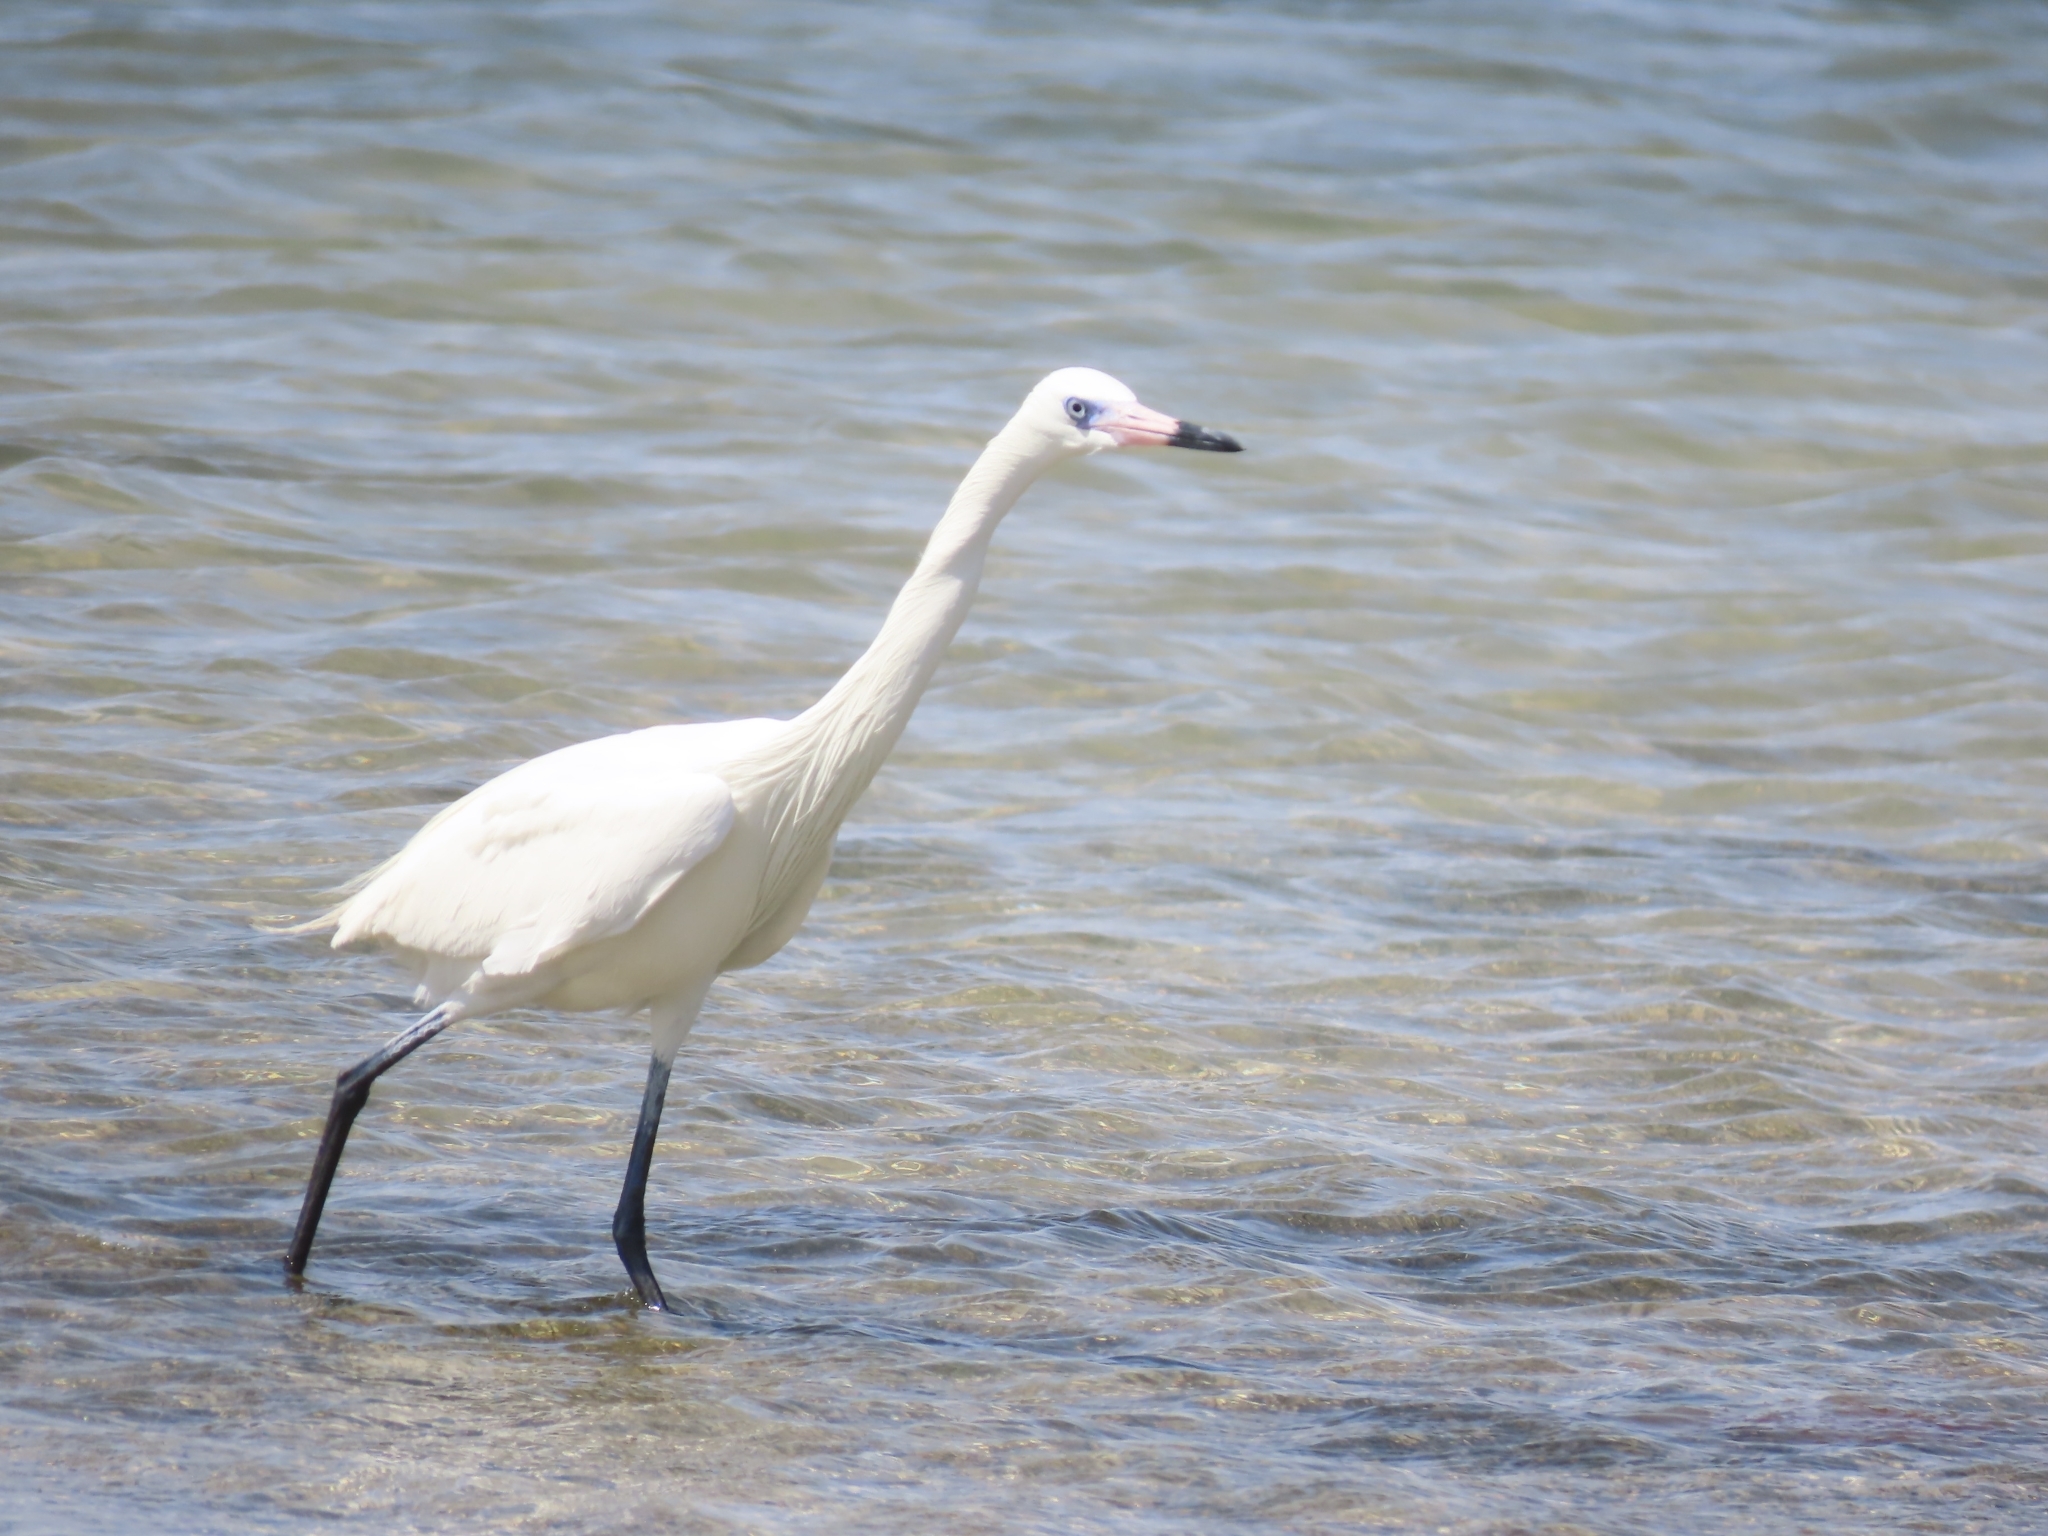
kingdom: Animalia
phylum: Chordata
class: Aves
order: Pelecaniformes
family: Ardeidae
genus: Egretta
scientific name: Egretta rufescens
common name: Reddish egret
